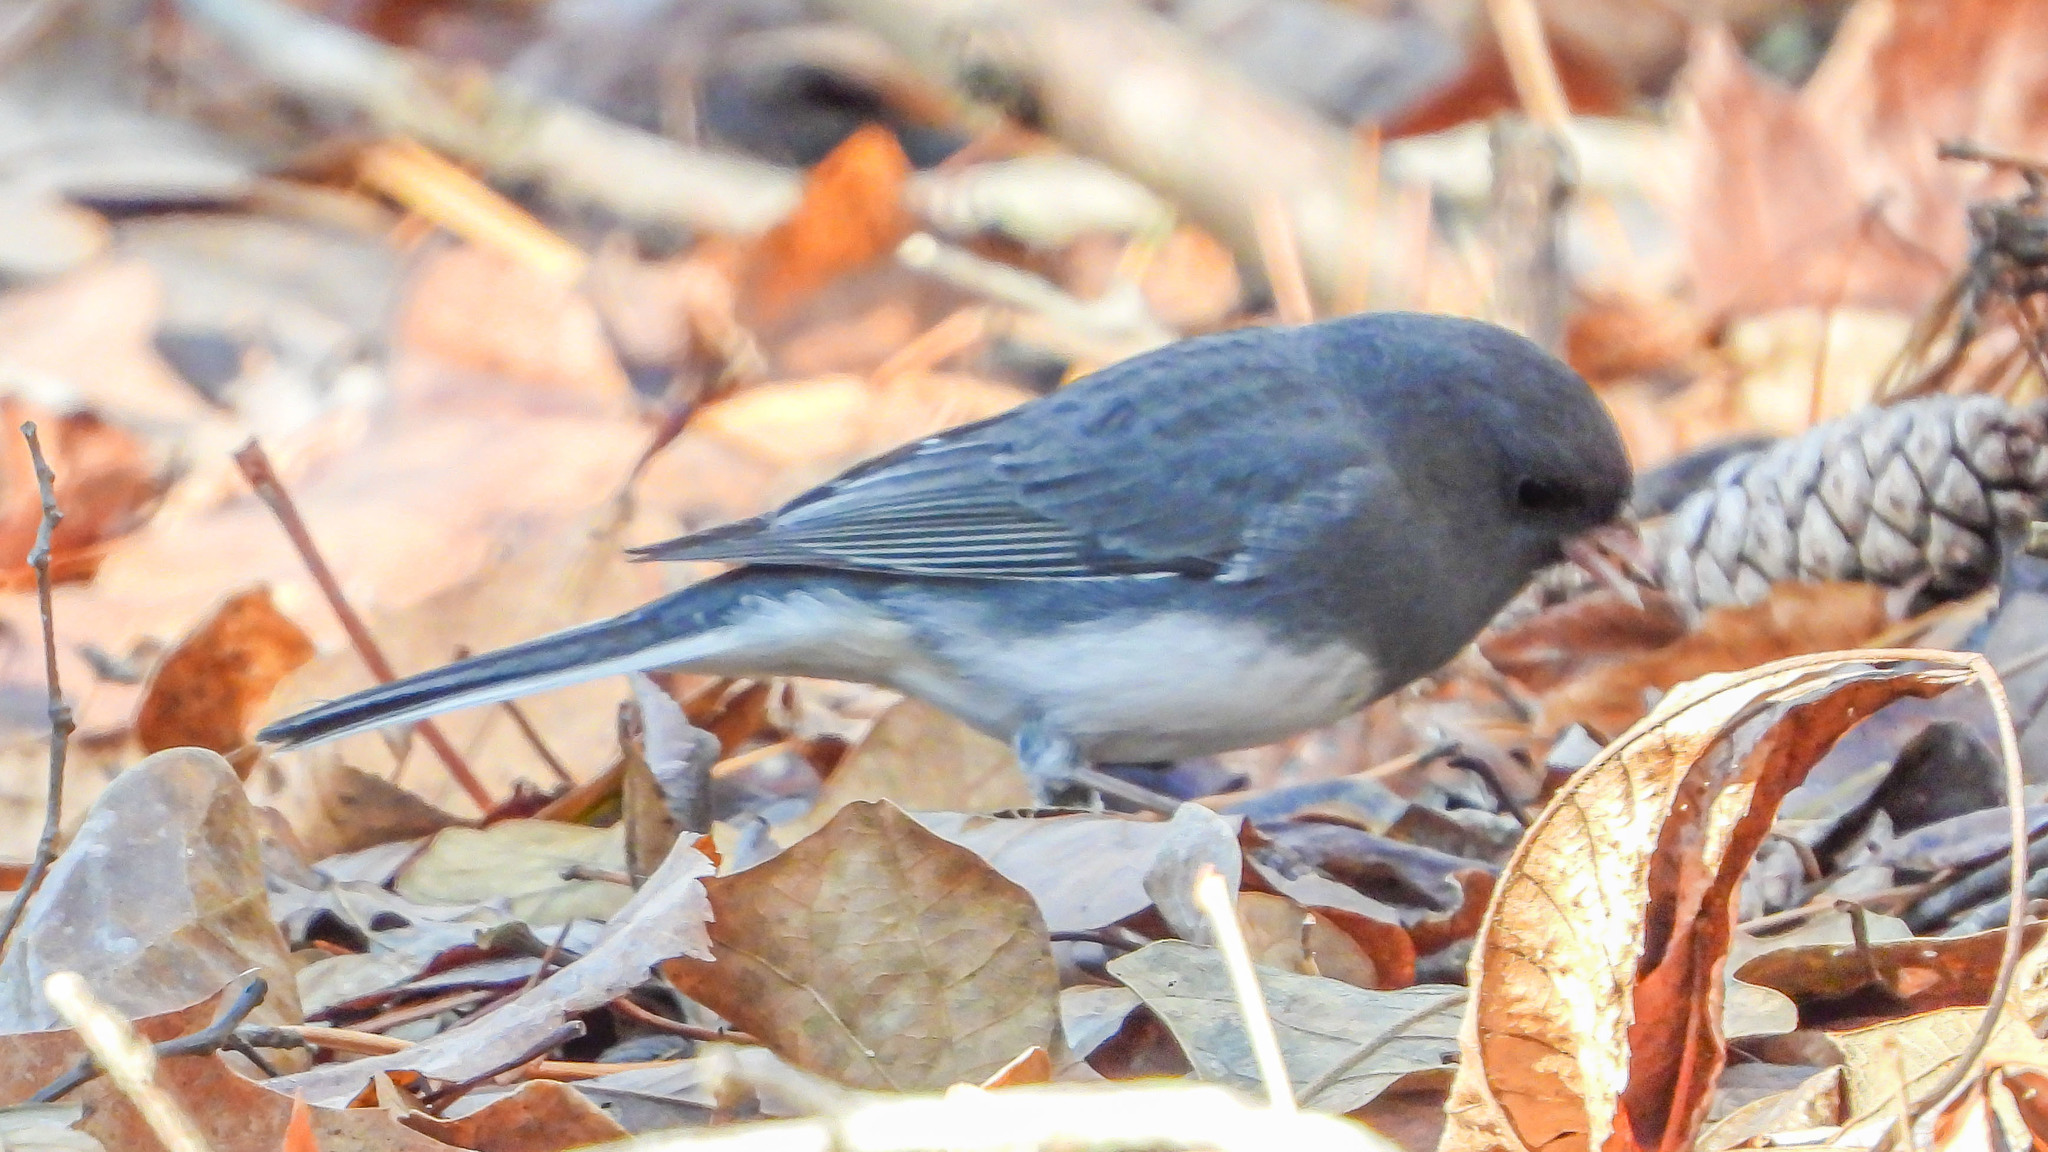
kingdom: Animalia
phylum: Chordata
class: Aves
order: Passeriformes
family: Passerellidae
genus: Junco
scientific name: Junco hyemalis
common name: Dark-eyed junco
